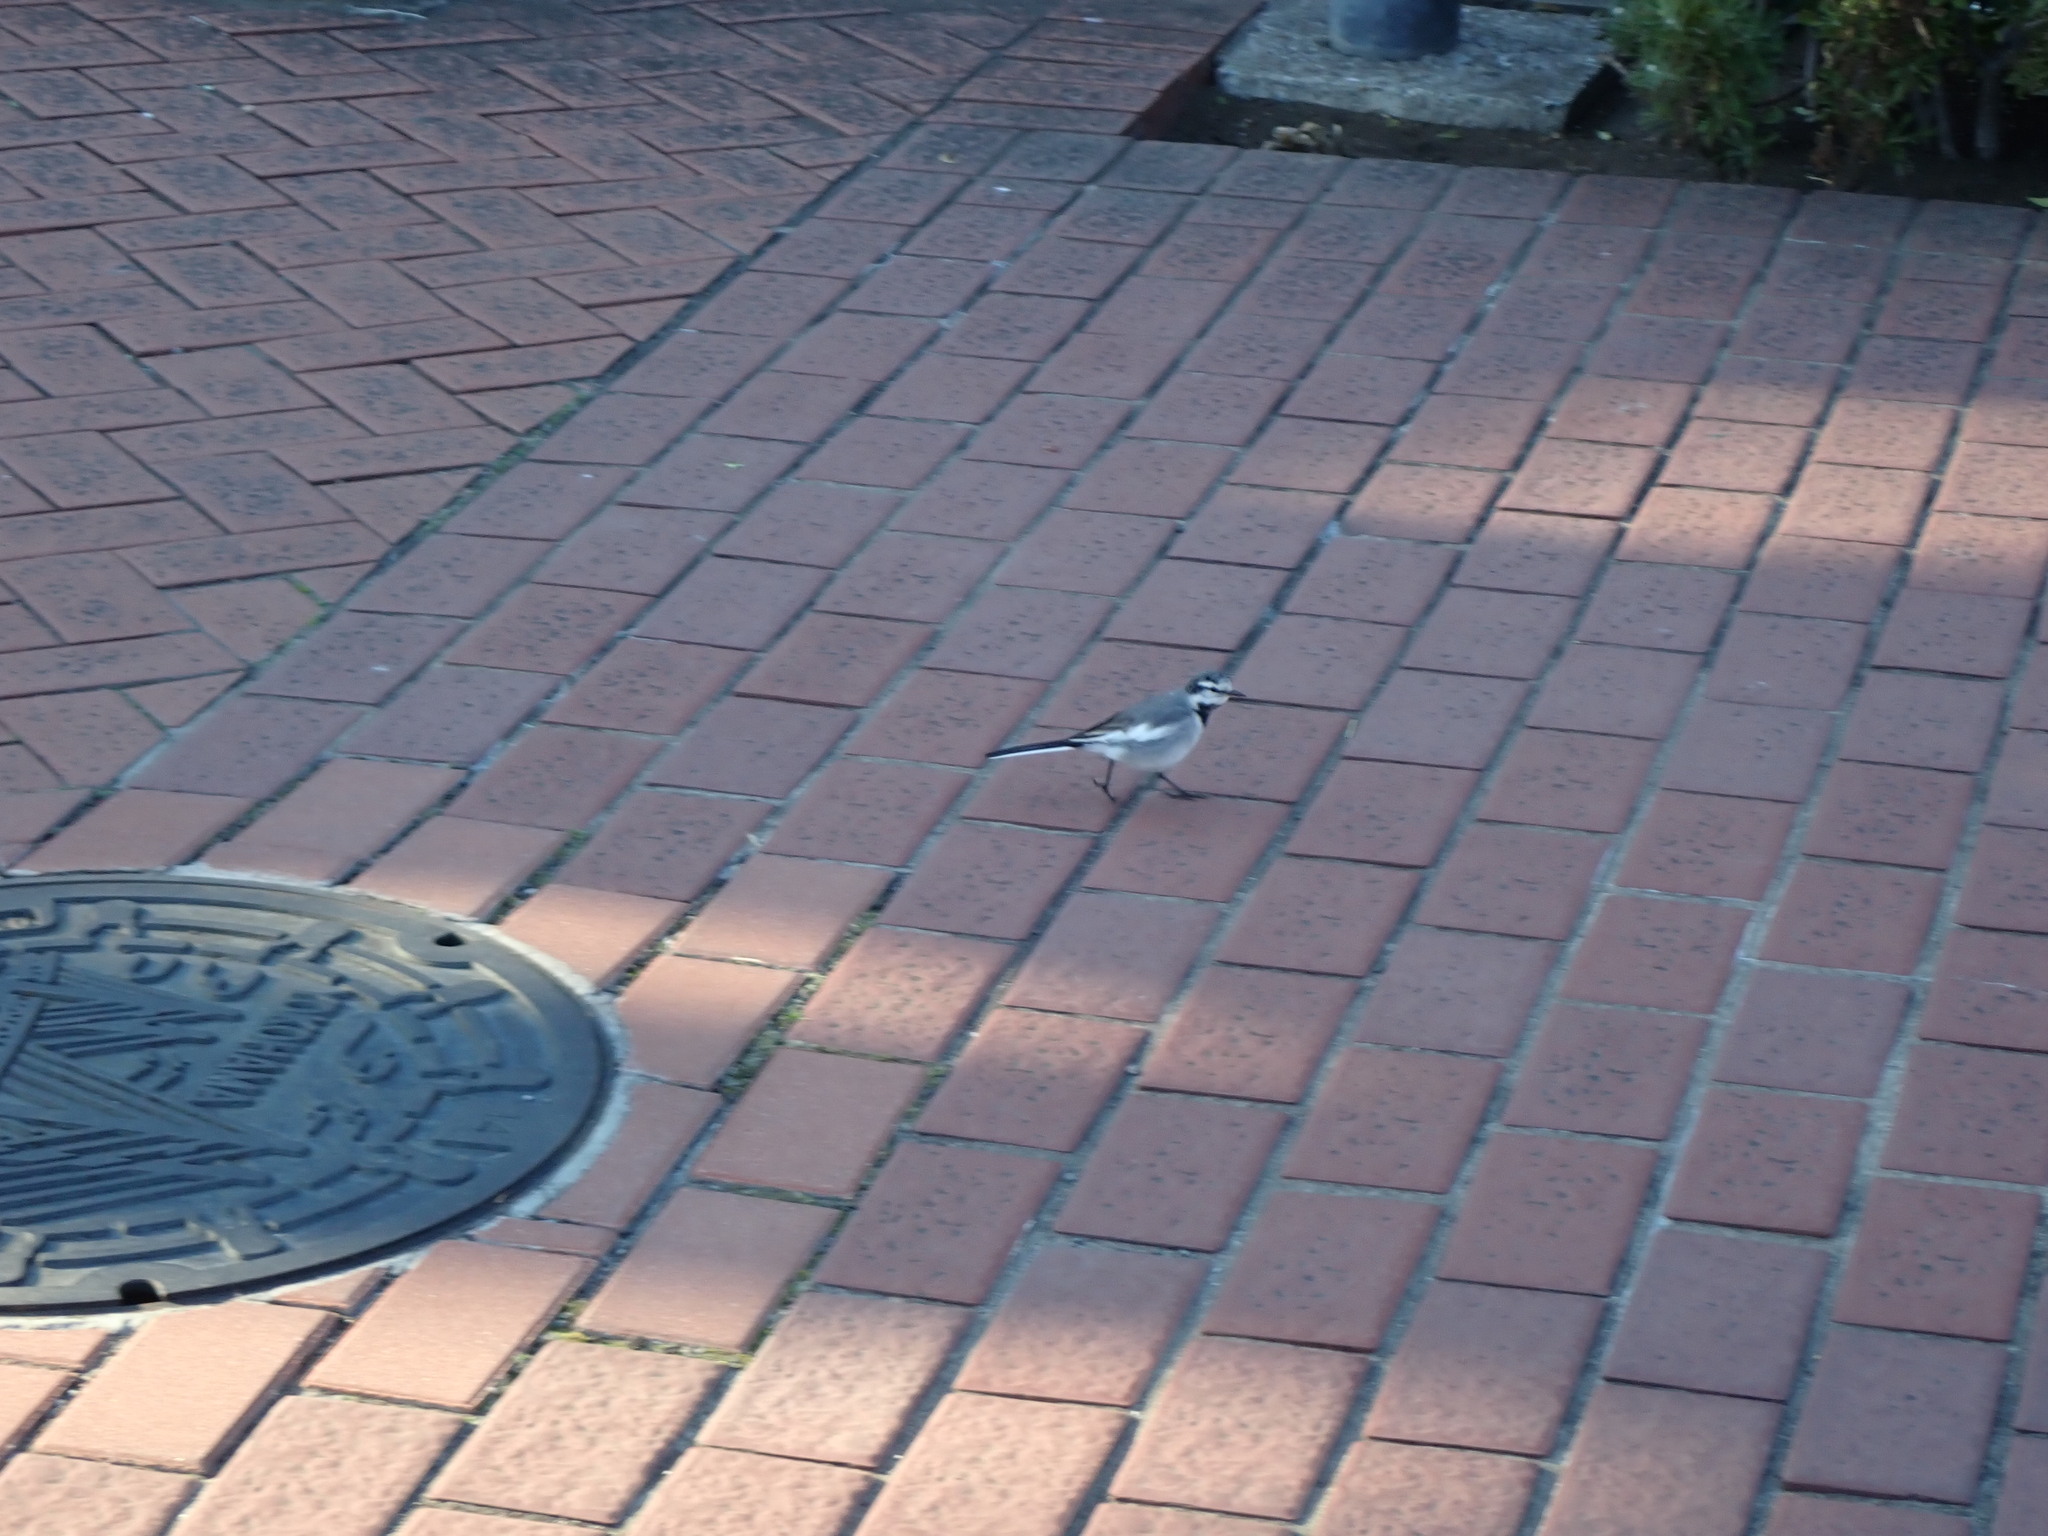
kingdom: Animalia
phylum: Chordata
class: Aves
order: Passeriformes
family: Motacillidae
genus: Motacilla
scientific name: Motacilla alba
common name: White wagtail
